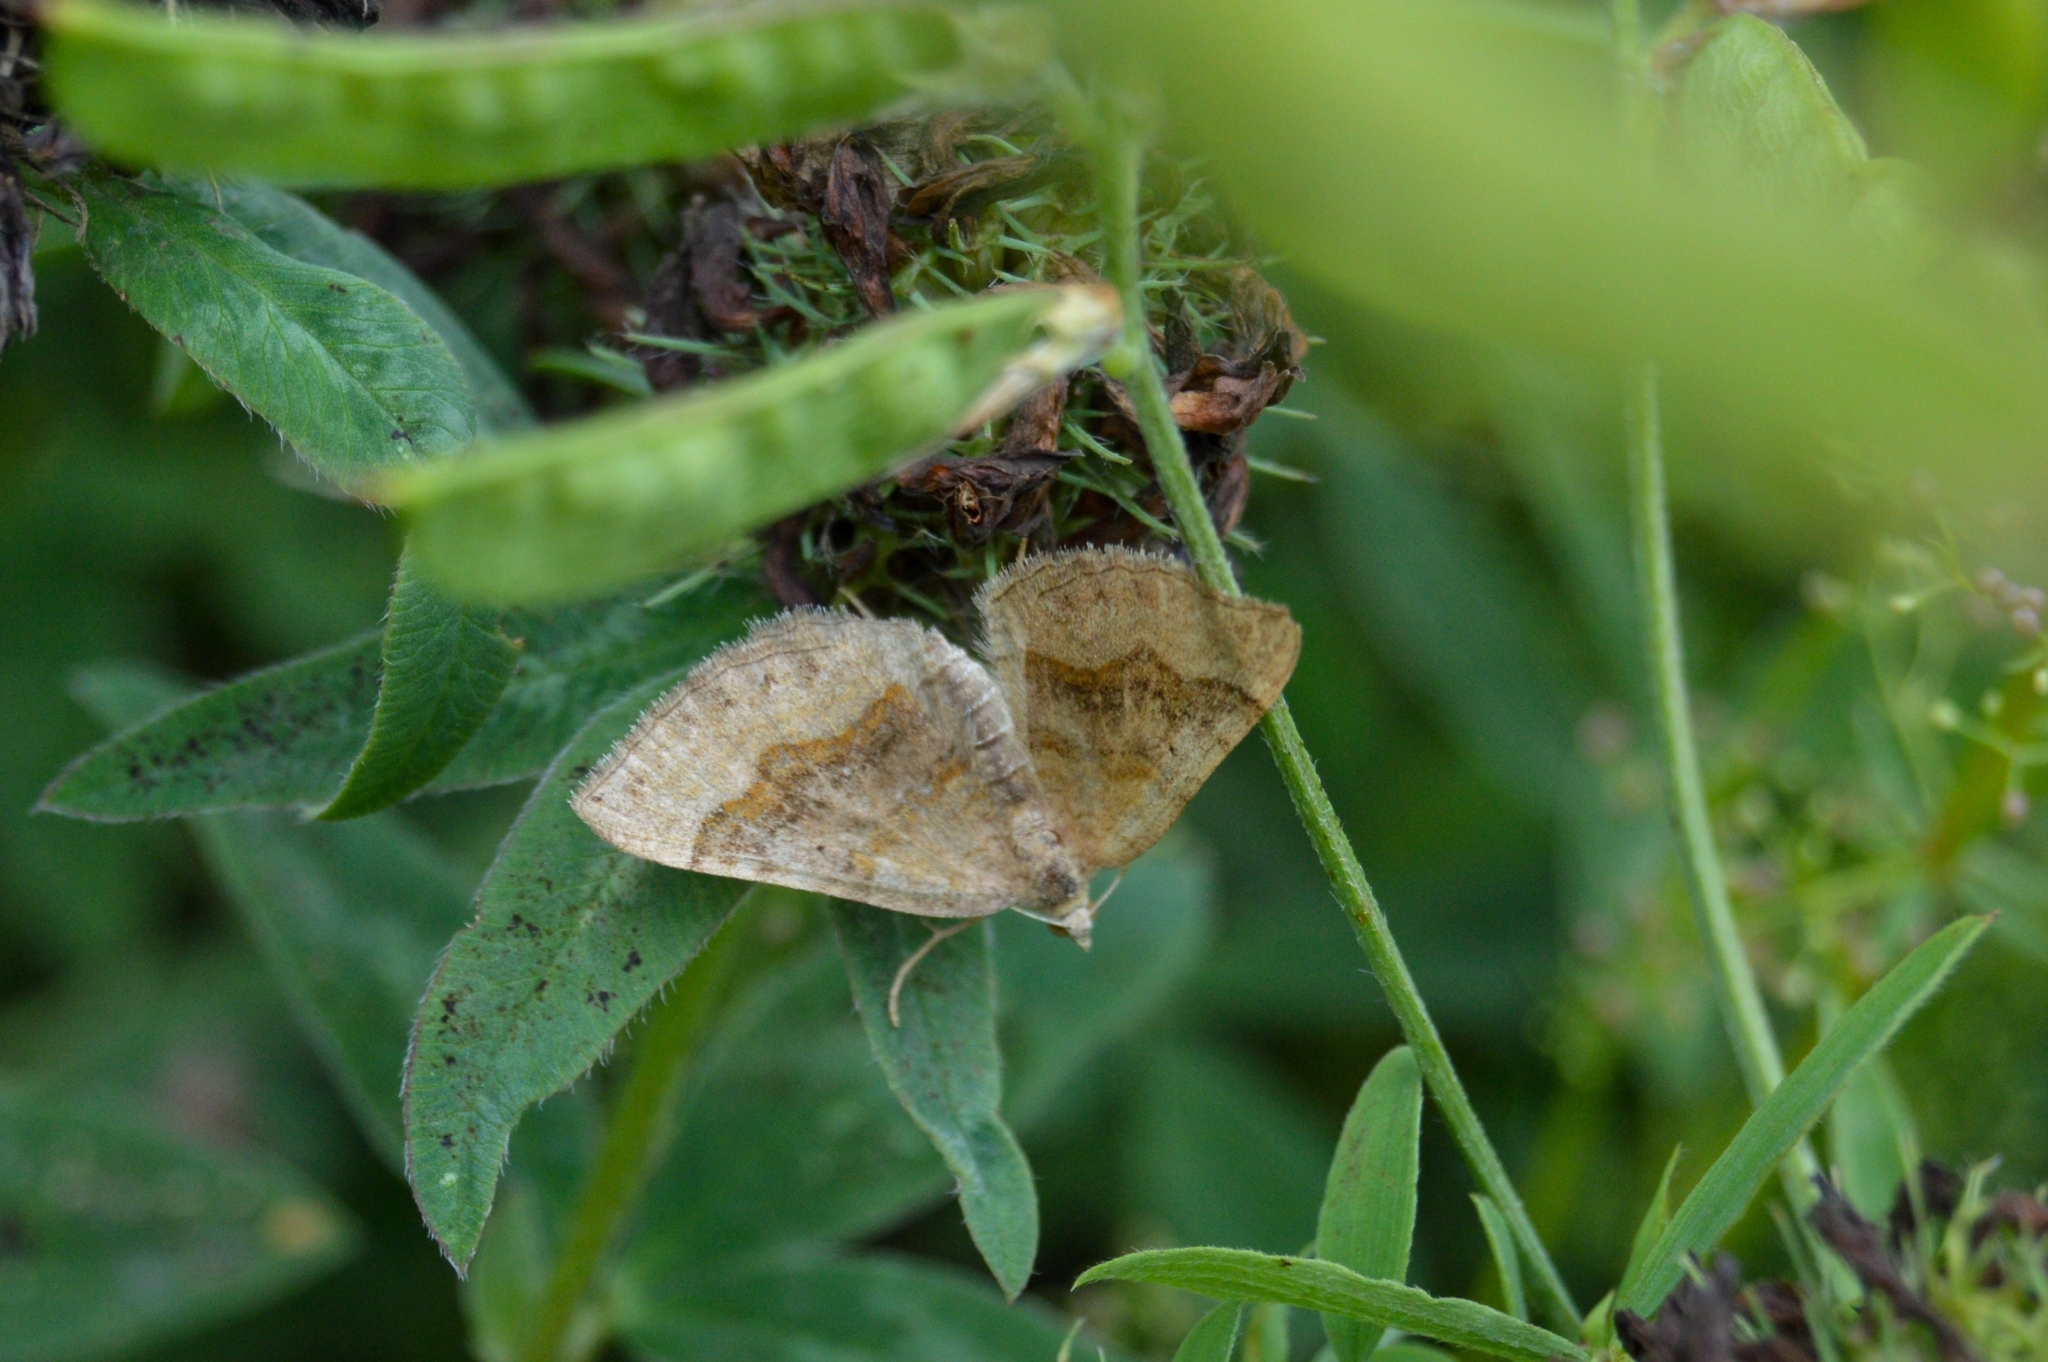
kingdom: Animalia
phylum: Arthropoda
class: Insecta
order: Lepidoptera
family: Geometridae
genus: Scotopteryx
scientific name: Scotopteryx chenopodiata
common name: Shaded broad-bar
